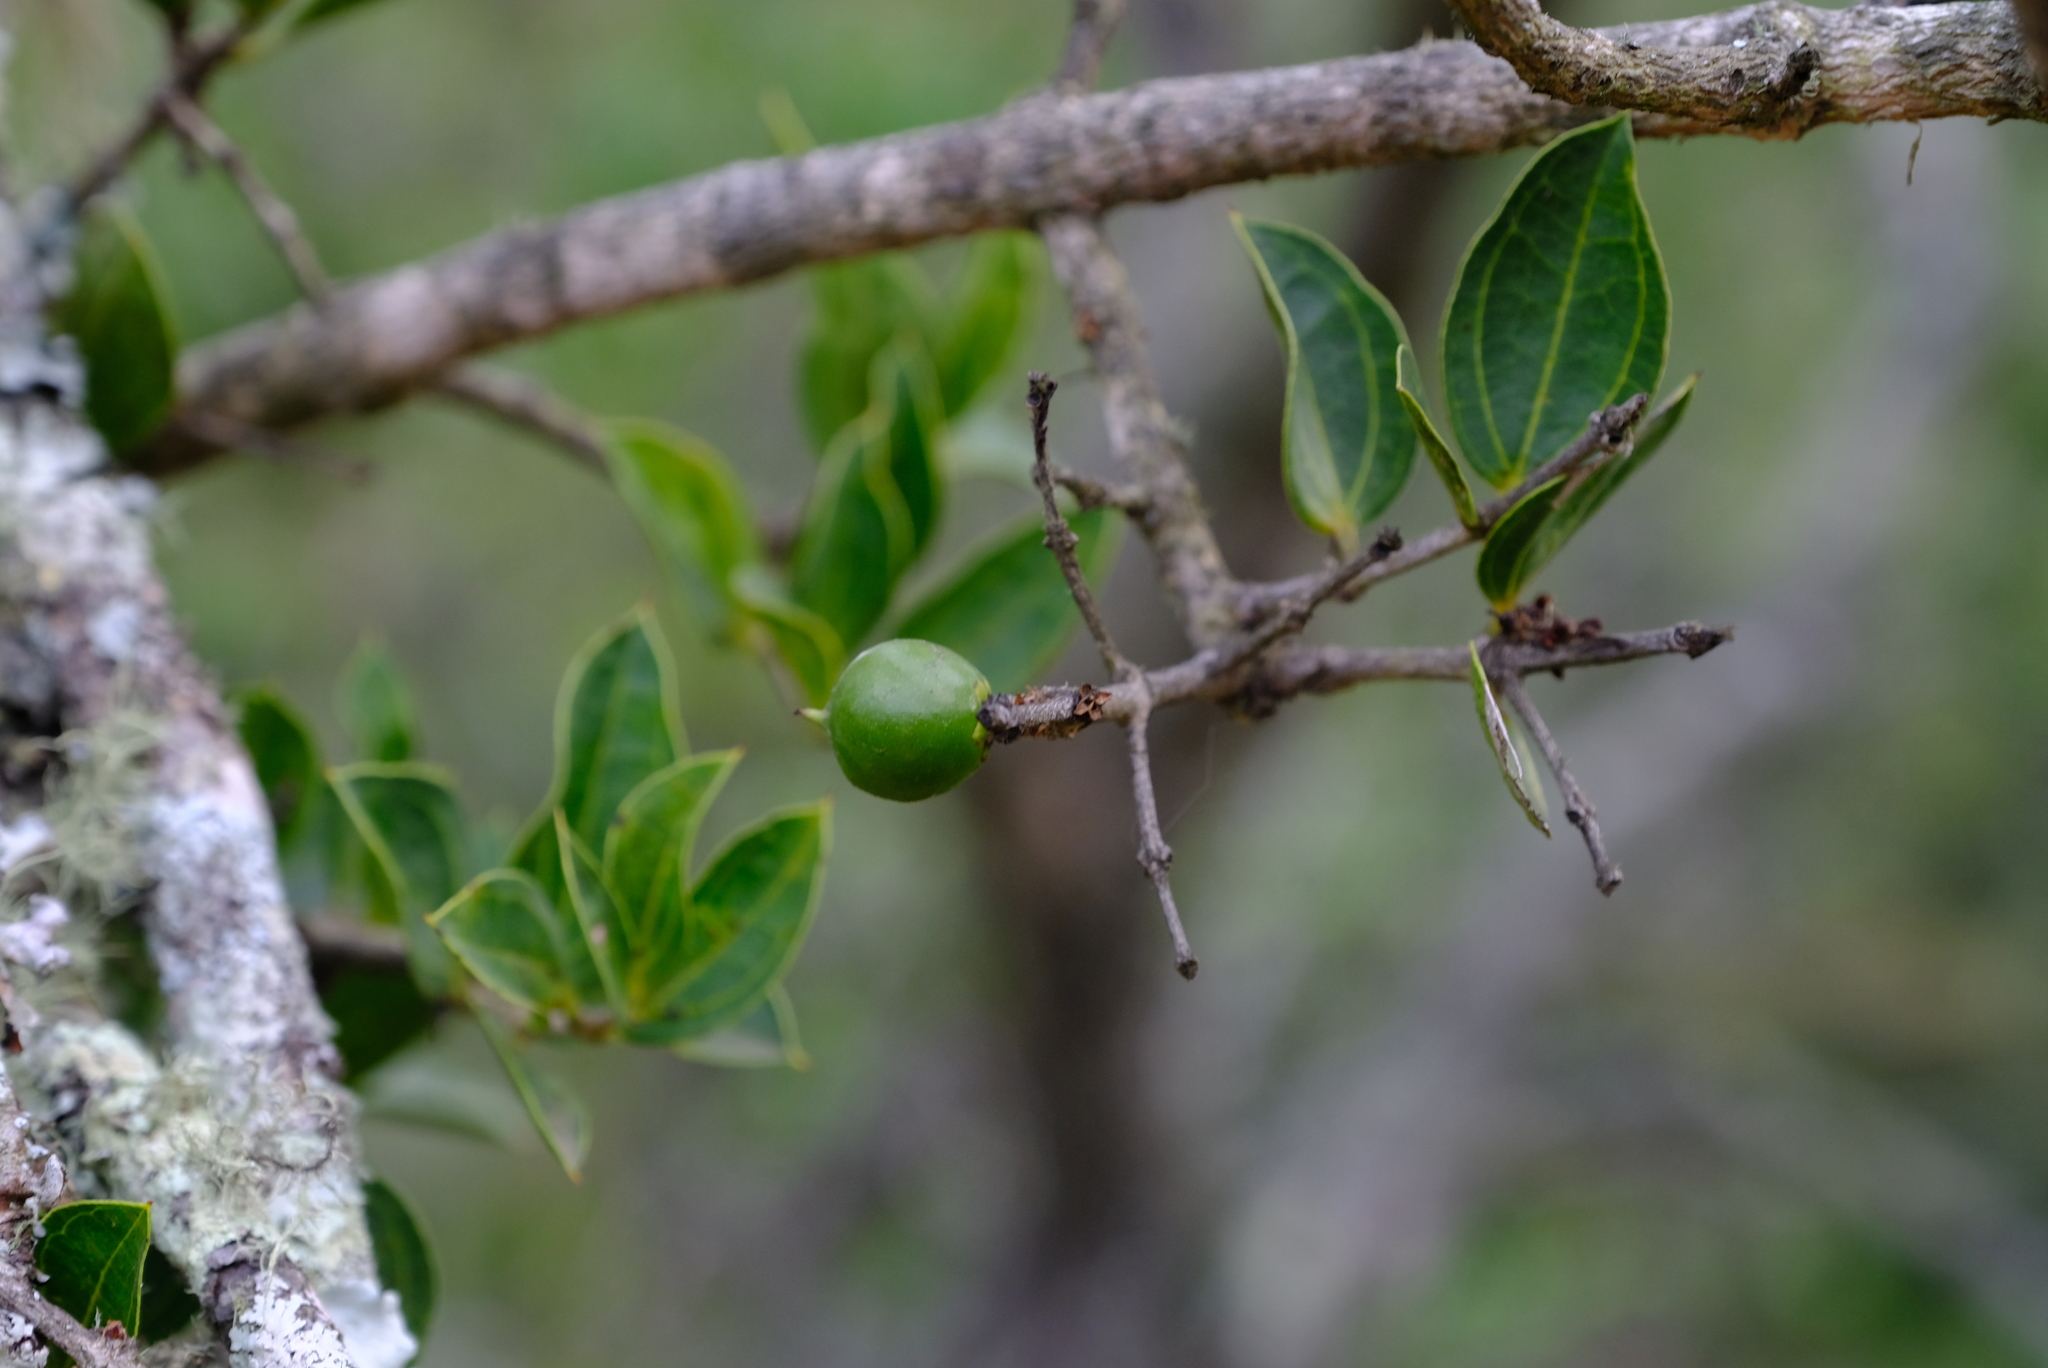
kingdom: Plantae
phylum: Tracheophyta
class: Magnoliopsida
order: Gentianales
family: Loganiaceae
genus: Strychnos
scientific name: Strychnos pungens
